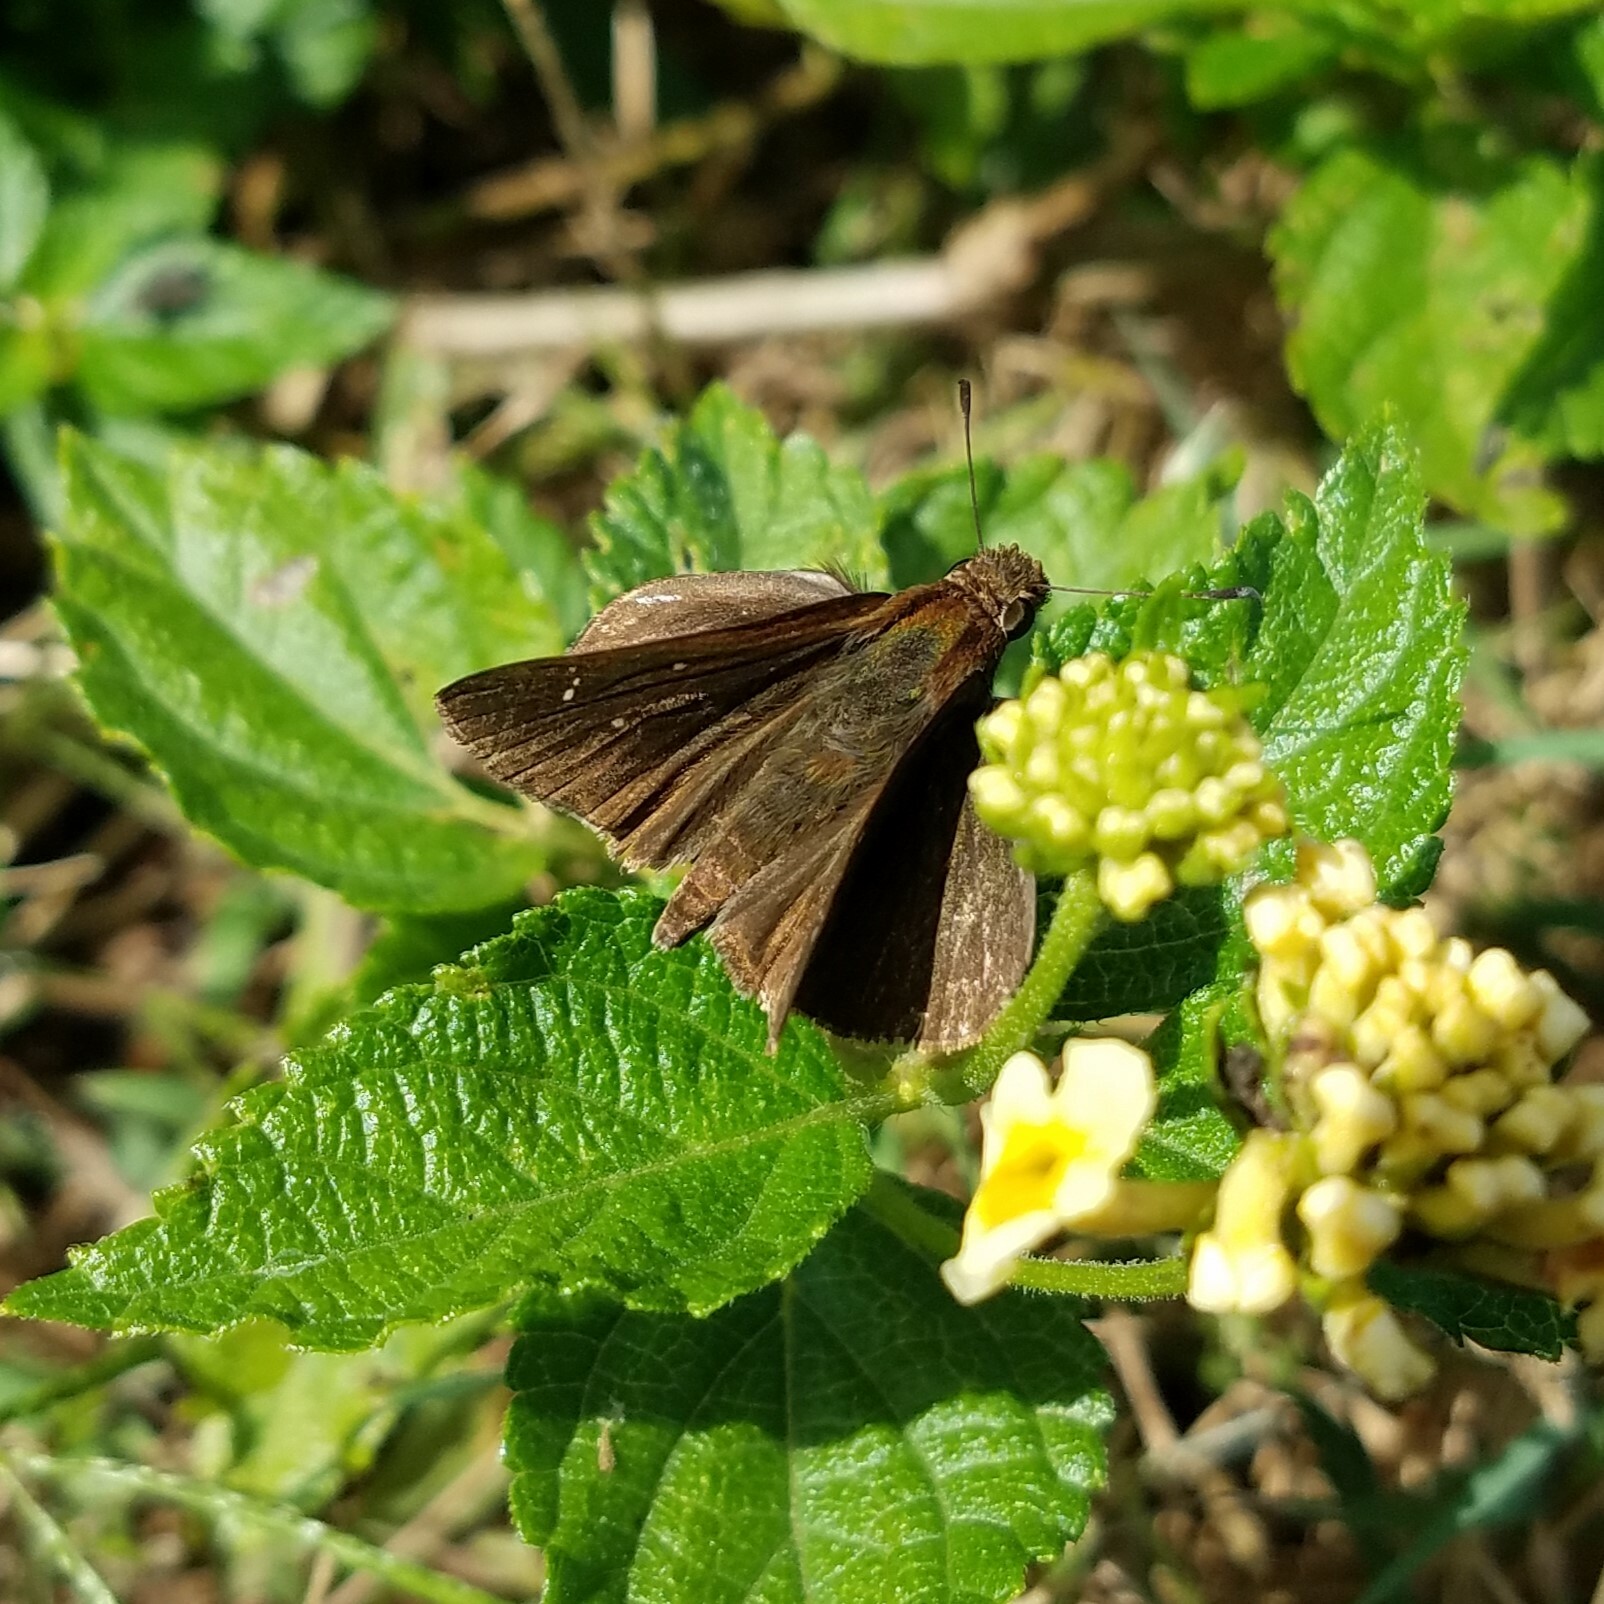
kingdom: Animalia
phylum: Arthropoda
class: Insecta
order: Lepidoptera
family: Hesperiidae
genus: Lerema
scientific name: Lerema accius
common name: Clouded skipper
